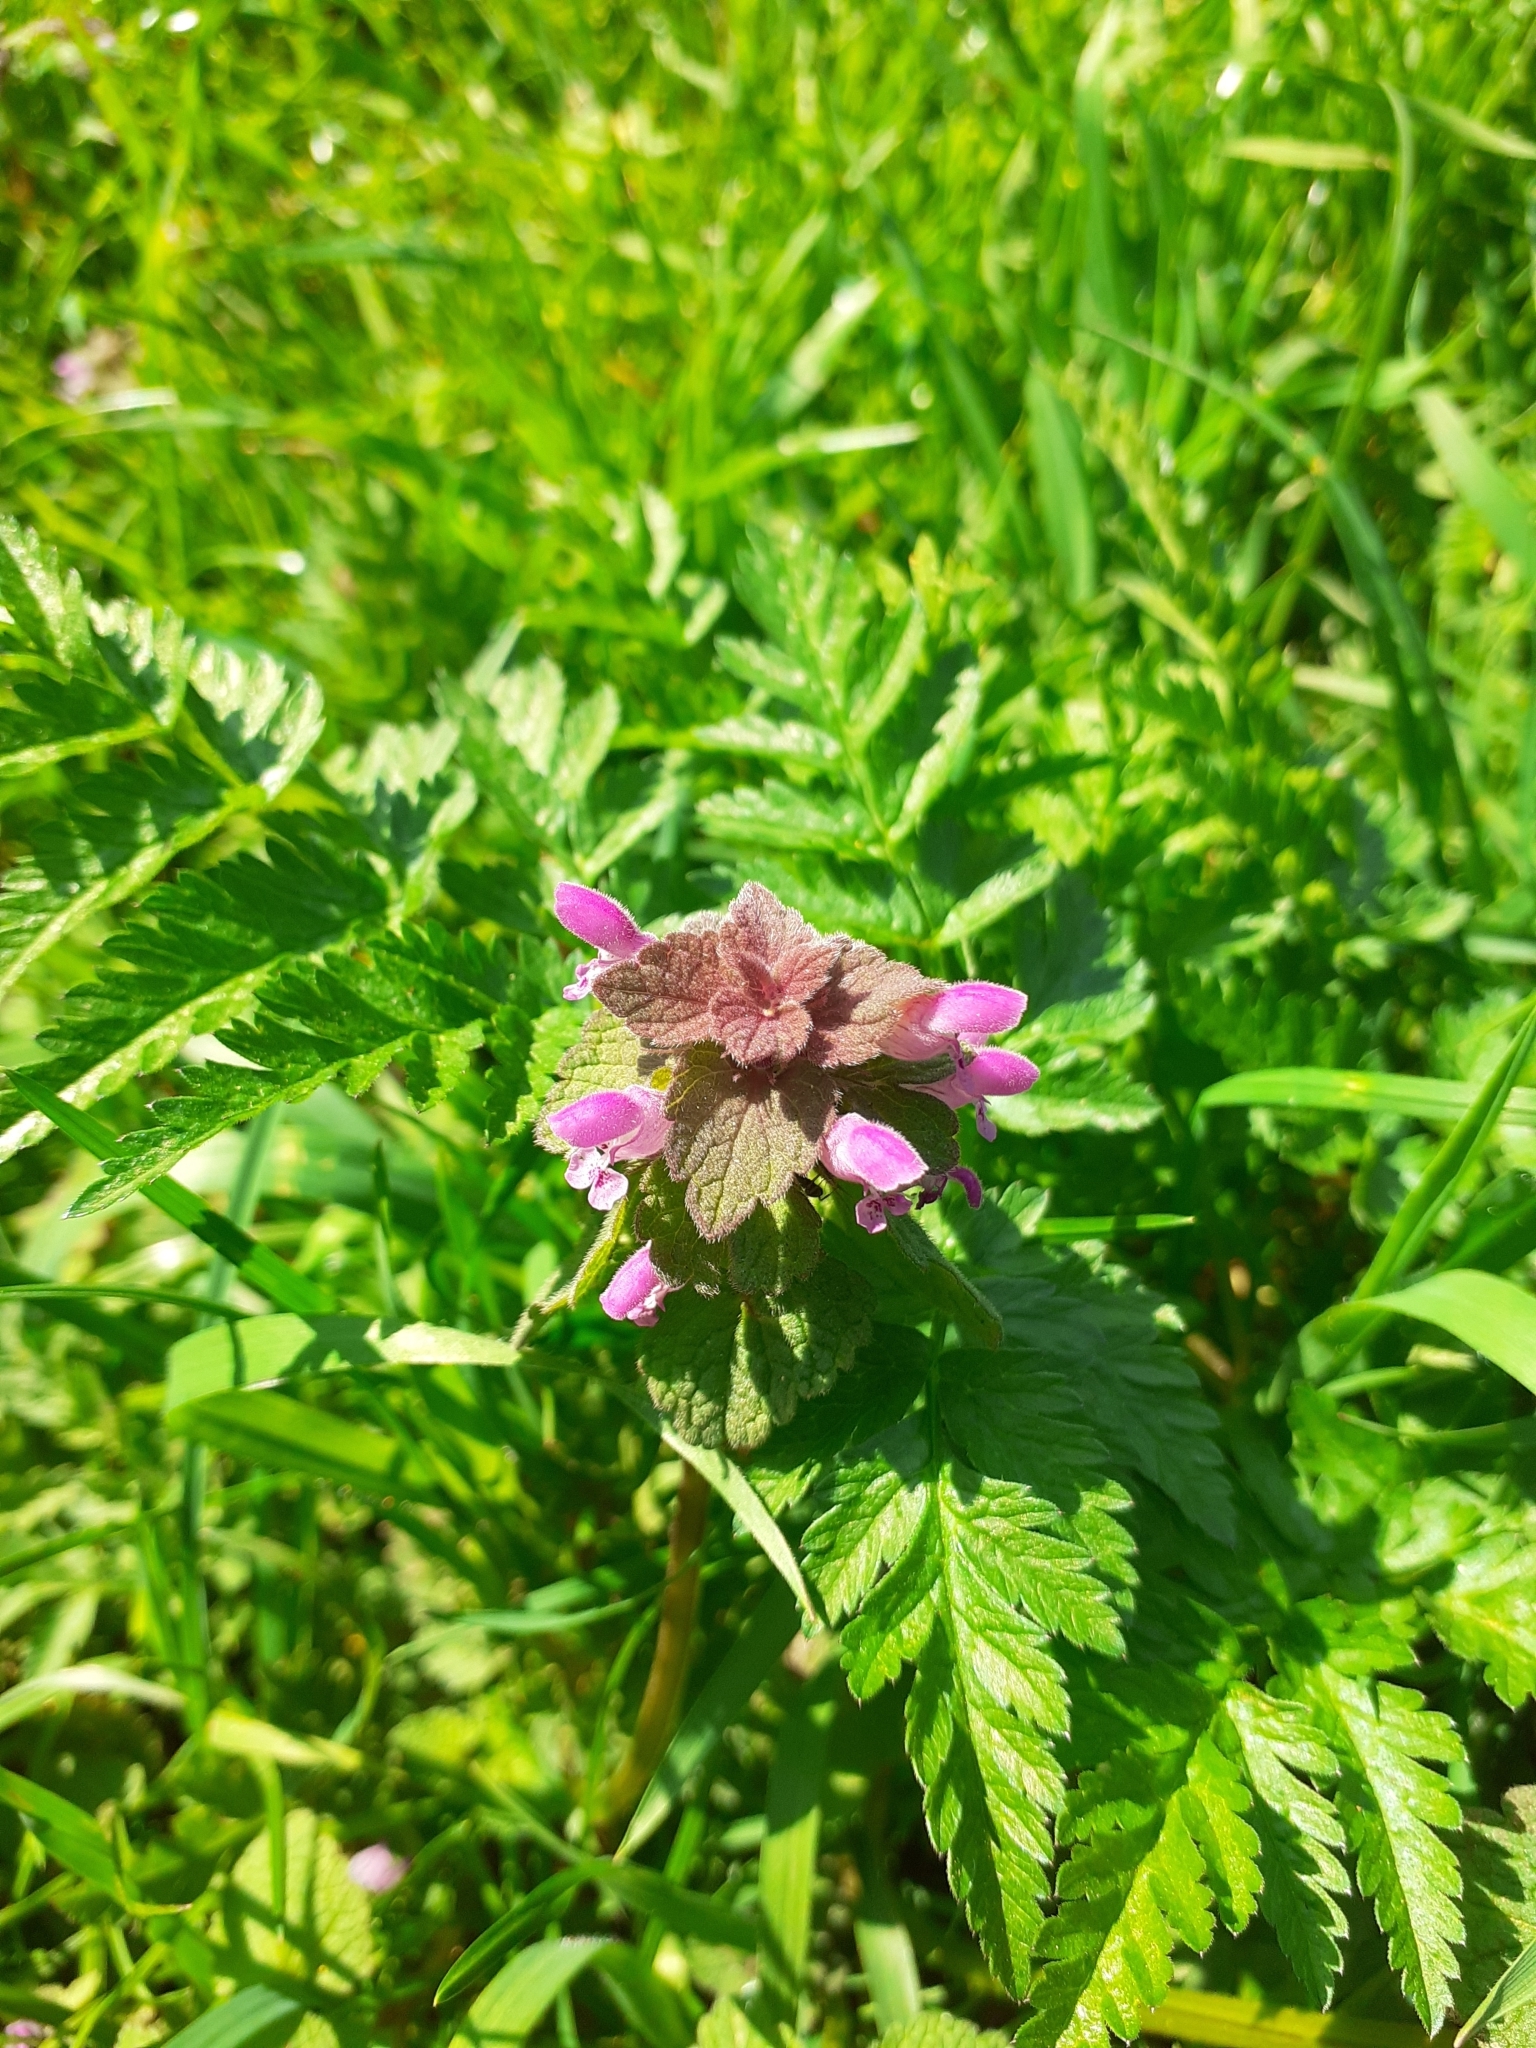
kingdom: Plantae
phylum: Tracheophyta
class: Magnoliopsida
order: Lamiales
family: Lamiaceae
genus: Lamium
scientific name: Lamium purpureum
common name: Red dead-nettle
